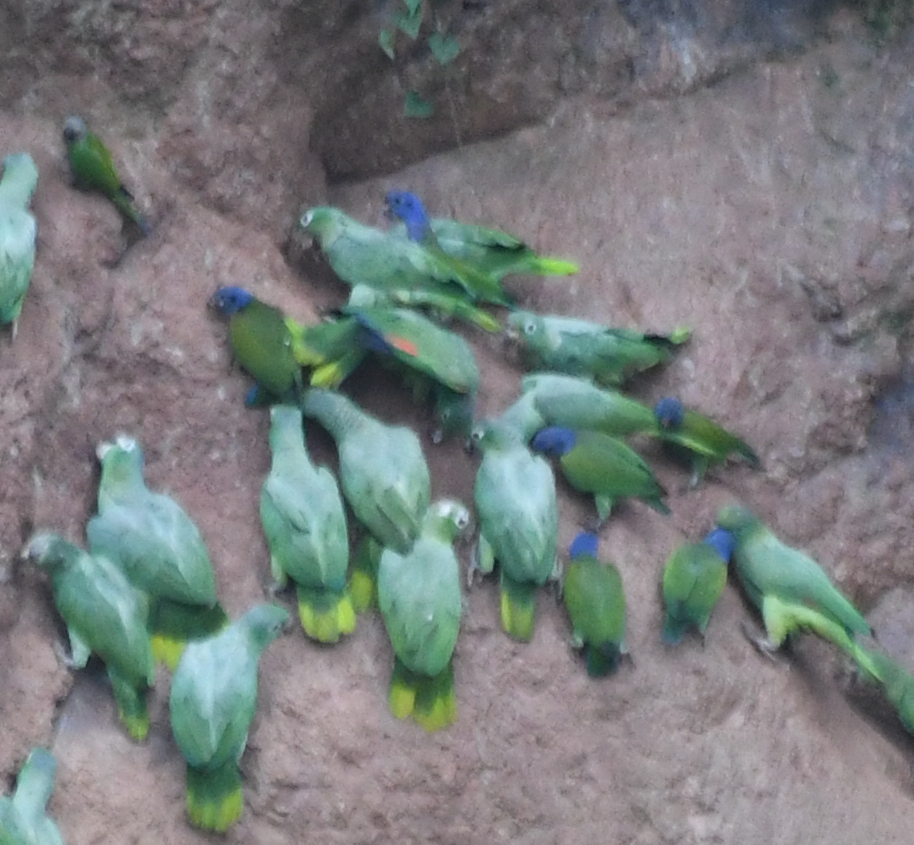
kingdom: Animalia
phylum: Chordata
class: Aves
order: Psittaciformes
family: Psittacidae
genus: Pionus
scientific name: Pionus menstruus
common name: Blue-headed parrot
